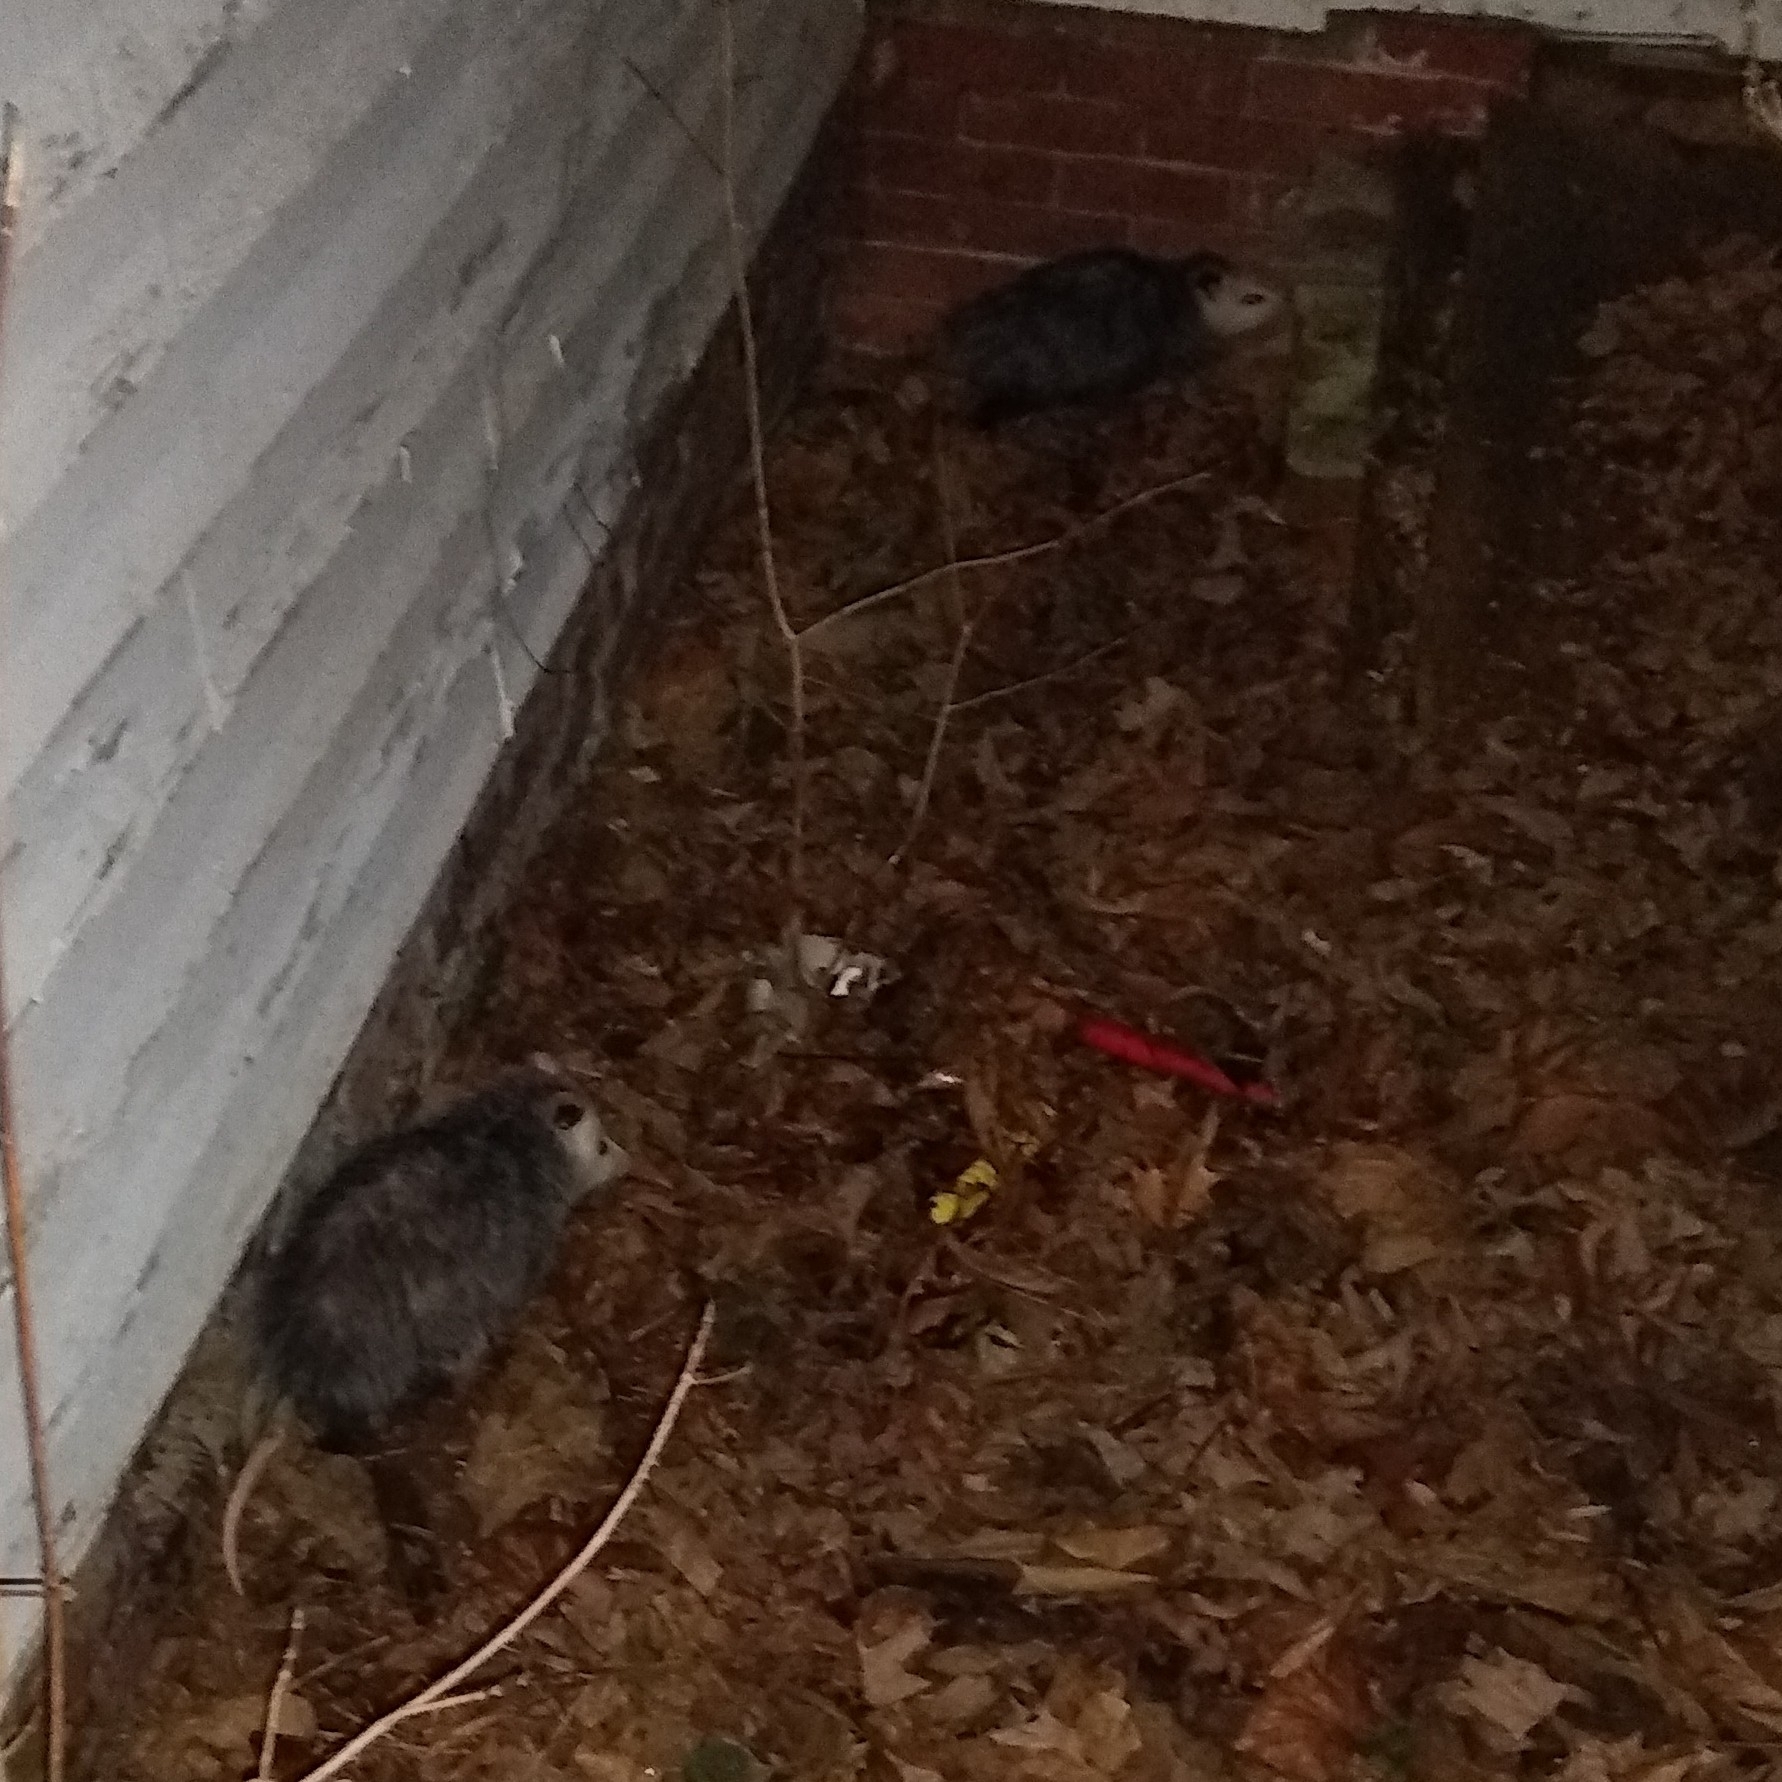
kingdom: Animalia
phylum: Chordata
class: Mammalia
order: Didelphimorphia
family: Didelphidae
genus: Didelphis
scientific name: Didelphis virginiana
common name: Virginia opossum
